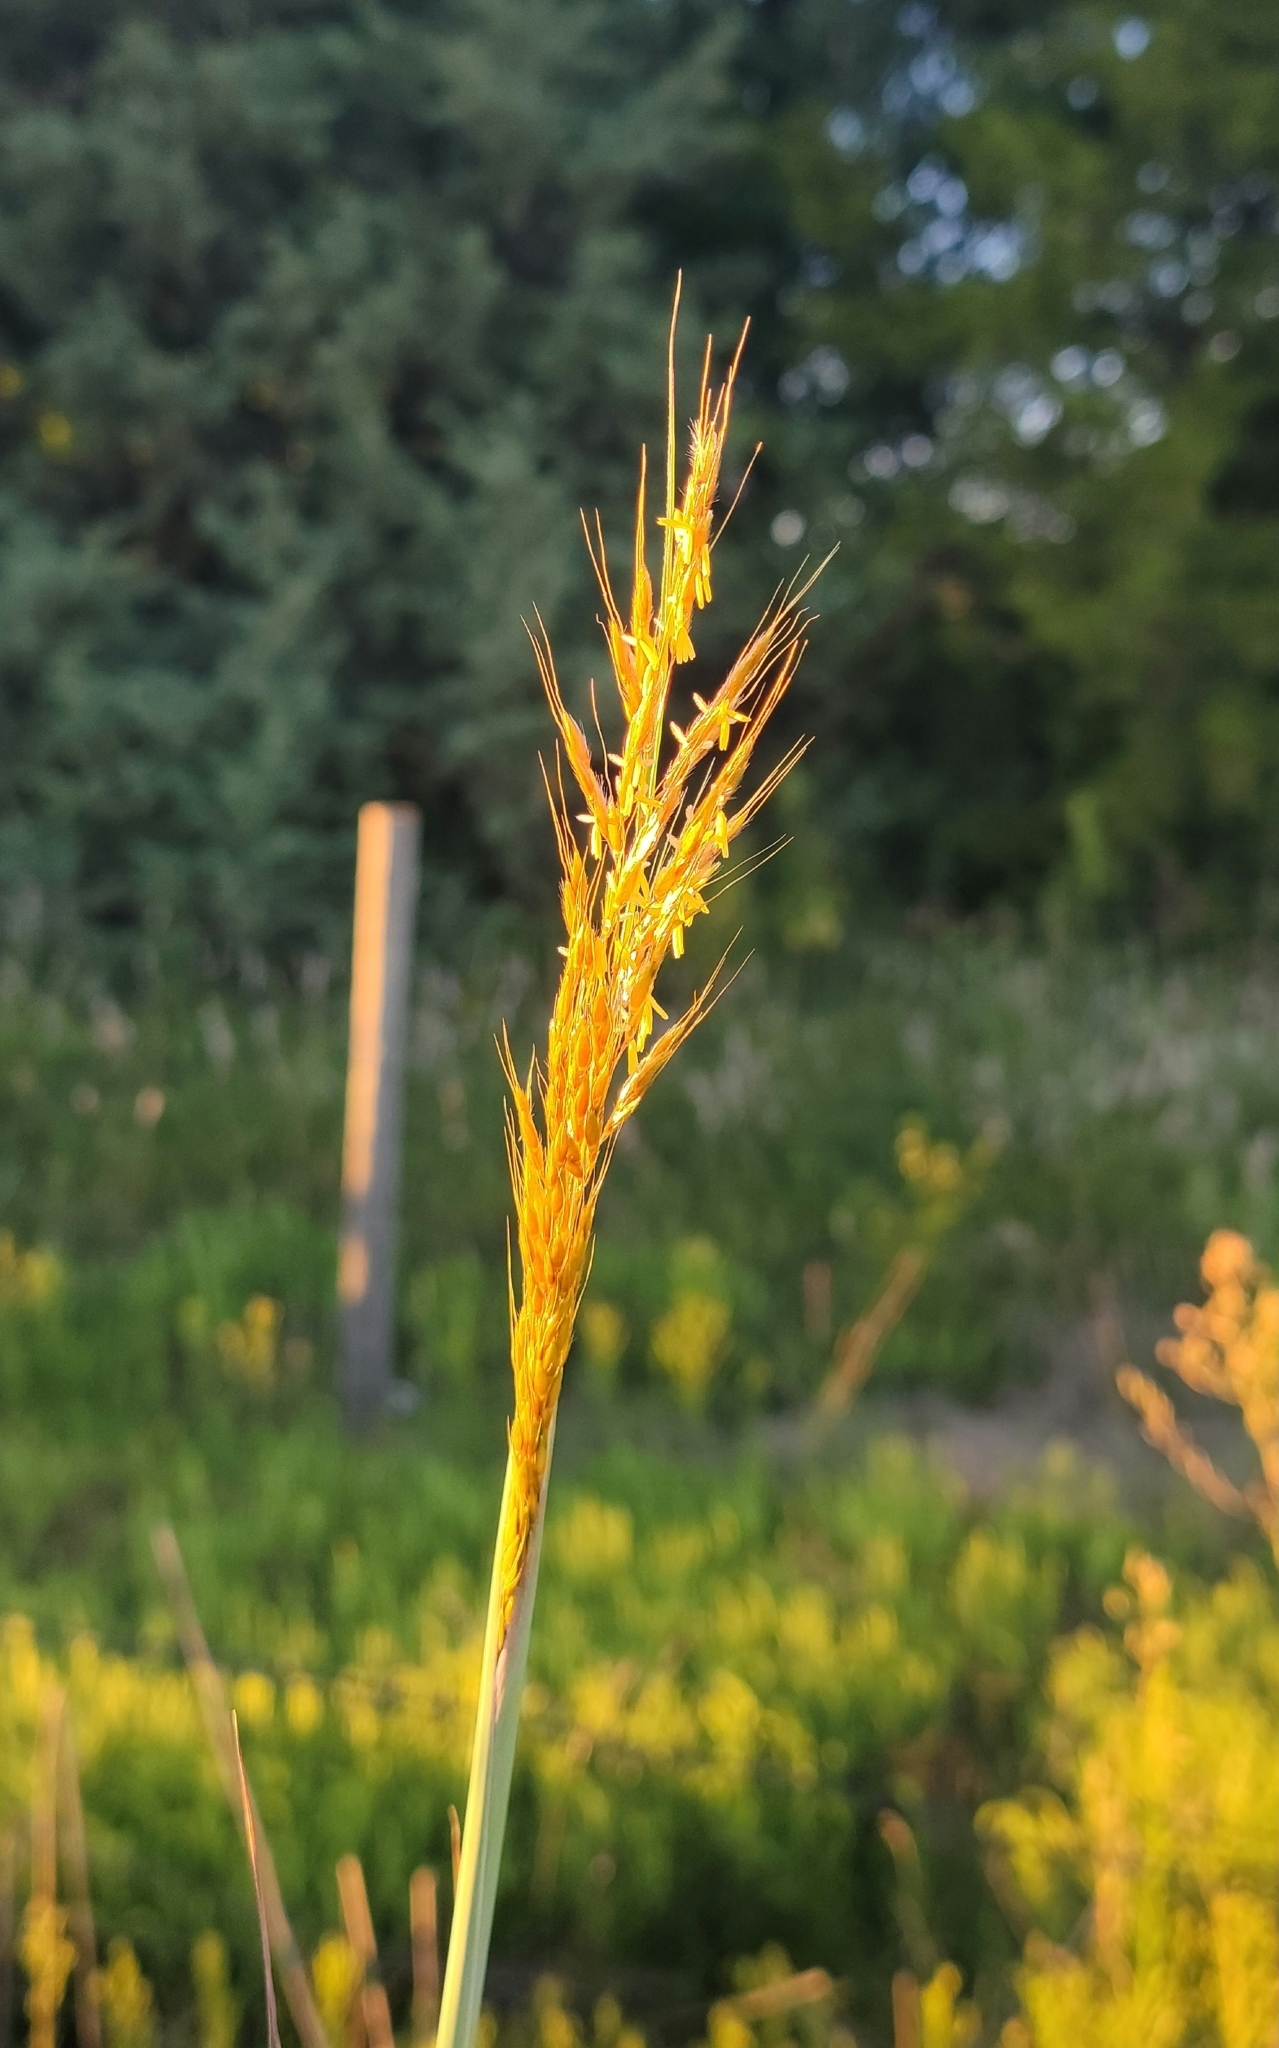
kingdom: Plantae
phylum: Tracheophyta
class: Liliopsida
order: Poales
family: Poaceae
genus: Sorghastrum
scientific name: Sorghastrum nutans
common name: Indian grass
